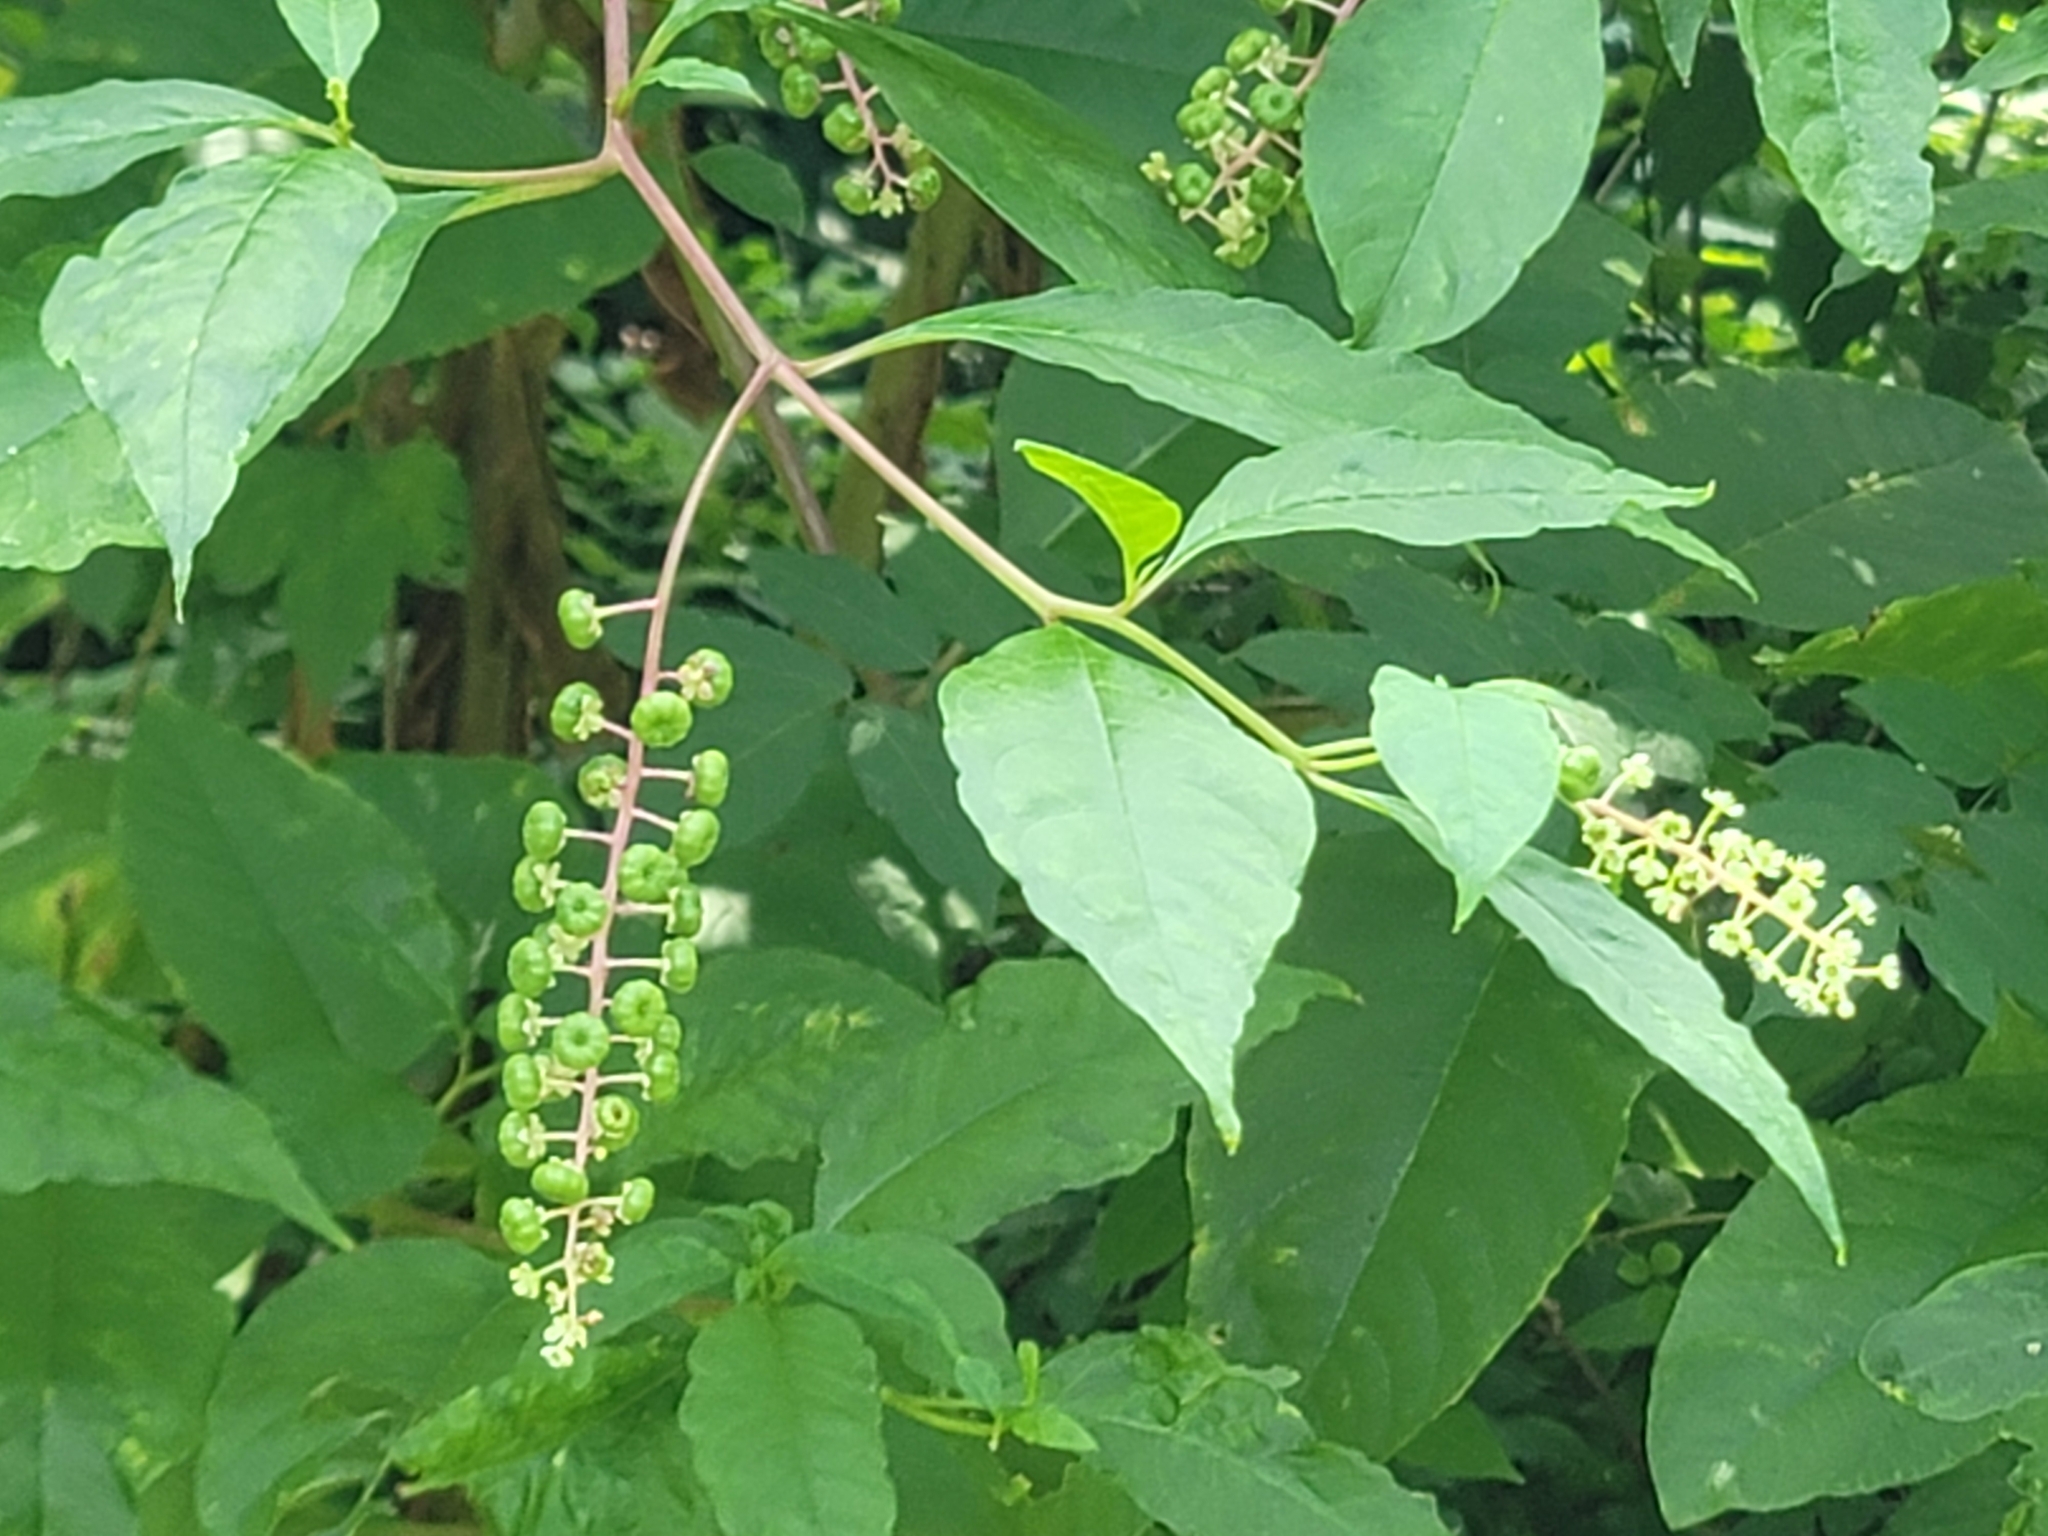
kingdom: Plantae
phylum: Tracheophyta
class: Magnoliopsida
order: Caryophyllales
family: Phytolaccaceae
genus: Phytolacca
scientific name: Phytolacca americana
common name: American pokeweed
